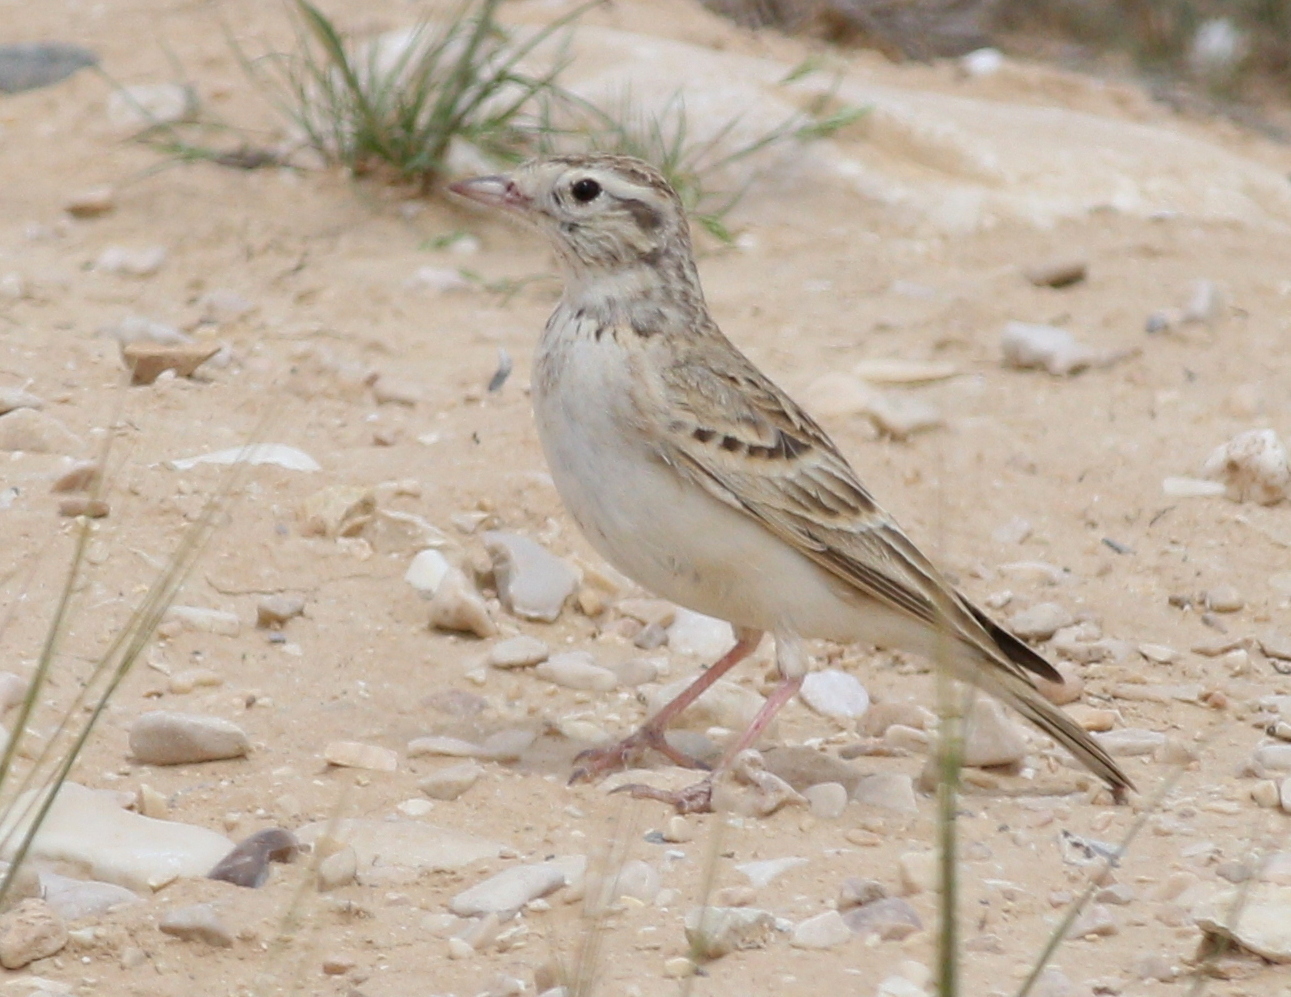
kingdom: Animalia
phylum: Chordata
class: Aves
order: Passeriformes
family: Alaudidae
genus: Calandrella
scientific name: Calandrella brachydactyla
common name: Greater short-toed lark
